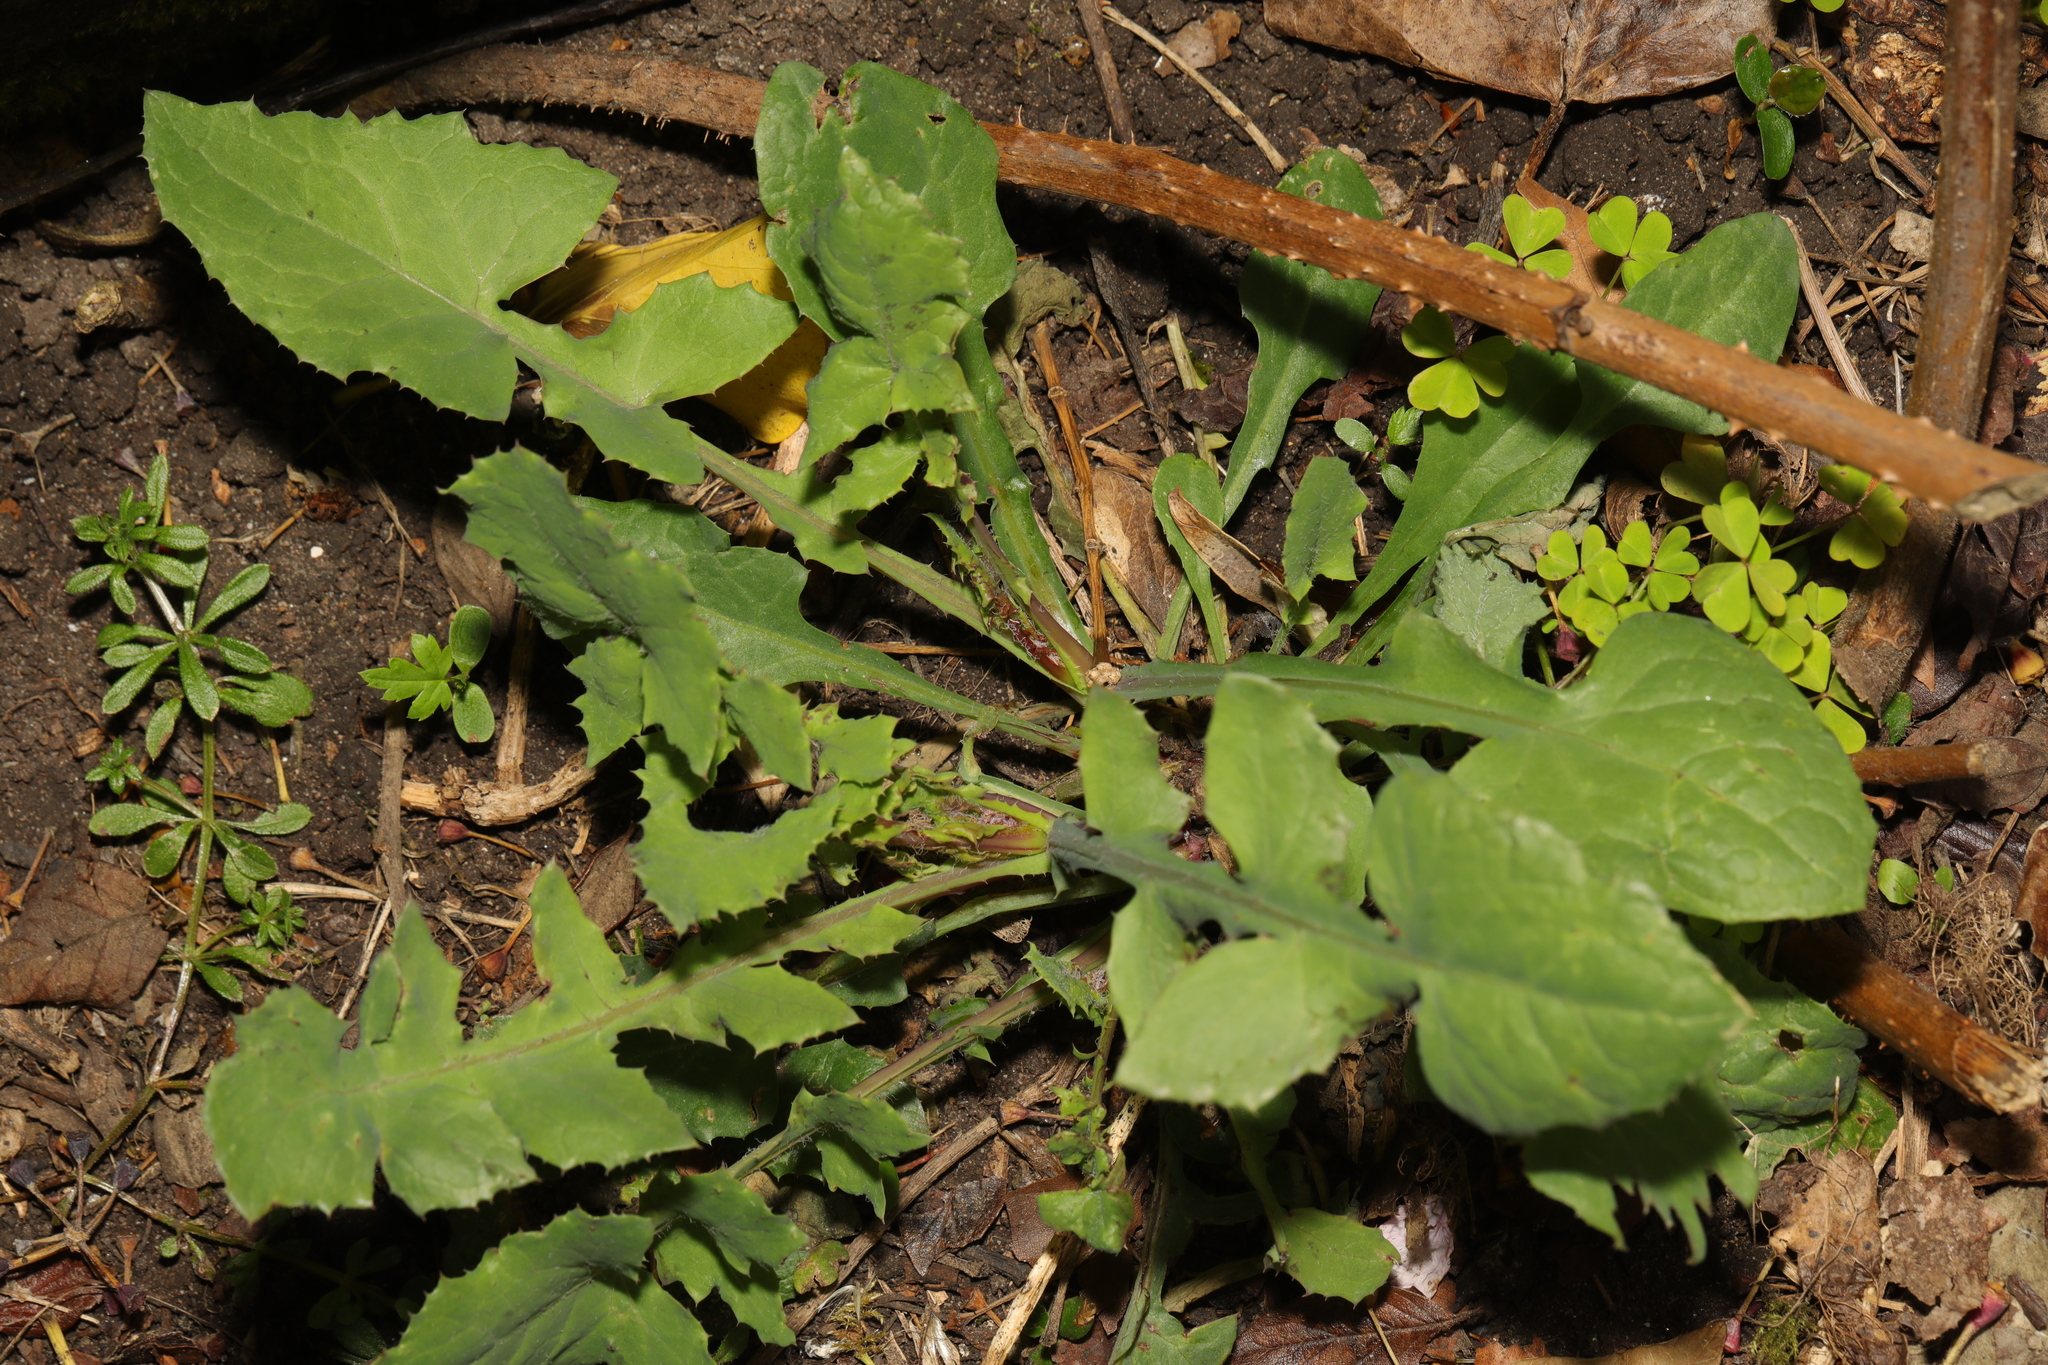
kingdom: Plantae
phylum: Tracheophyta
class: Magnoliopsida
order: Asterales
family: Asteraceae
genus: Sonchus
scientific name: Sonchus oleraceus
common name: Common sowthistle
